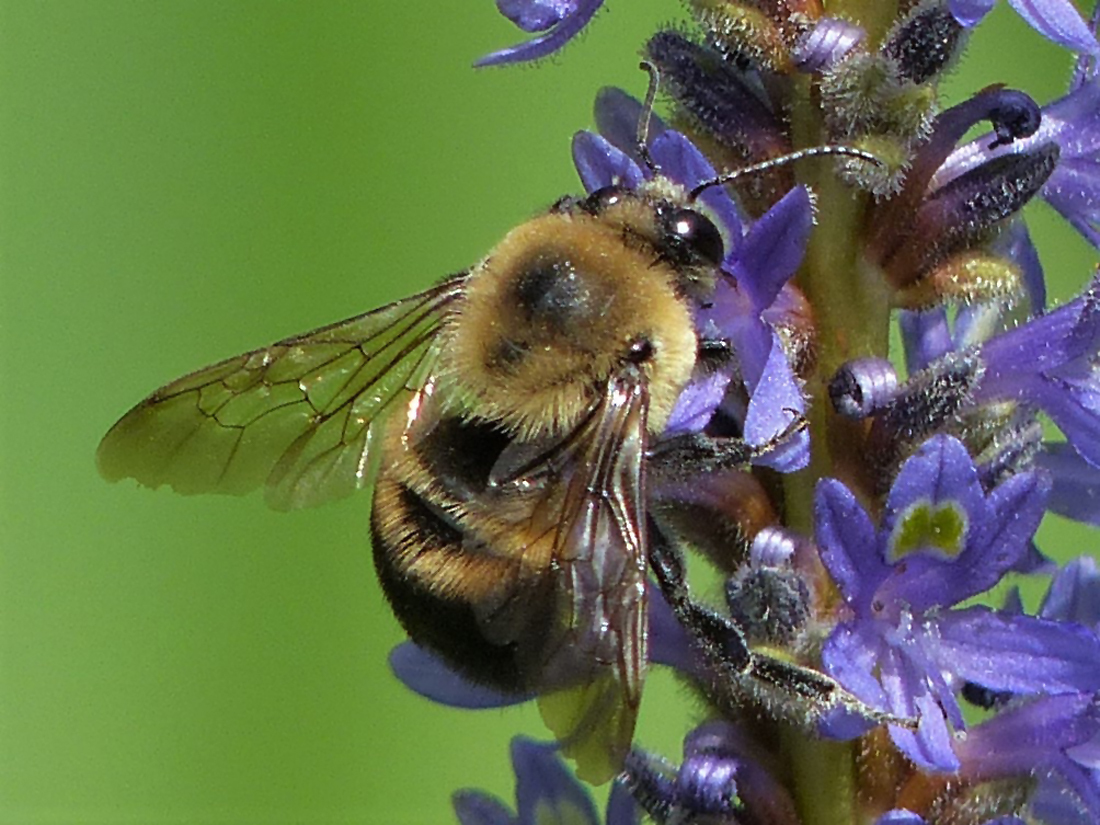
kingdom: Animalia
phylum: Arthropoda
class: Insecta
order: Hymenoptera
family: Apidae
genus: Bombus
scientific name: Bombus griseocollis
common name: Brown-belted bumble bee
